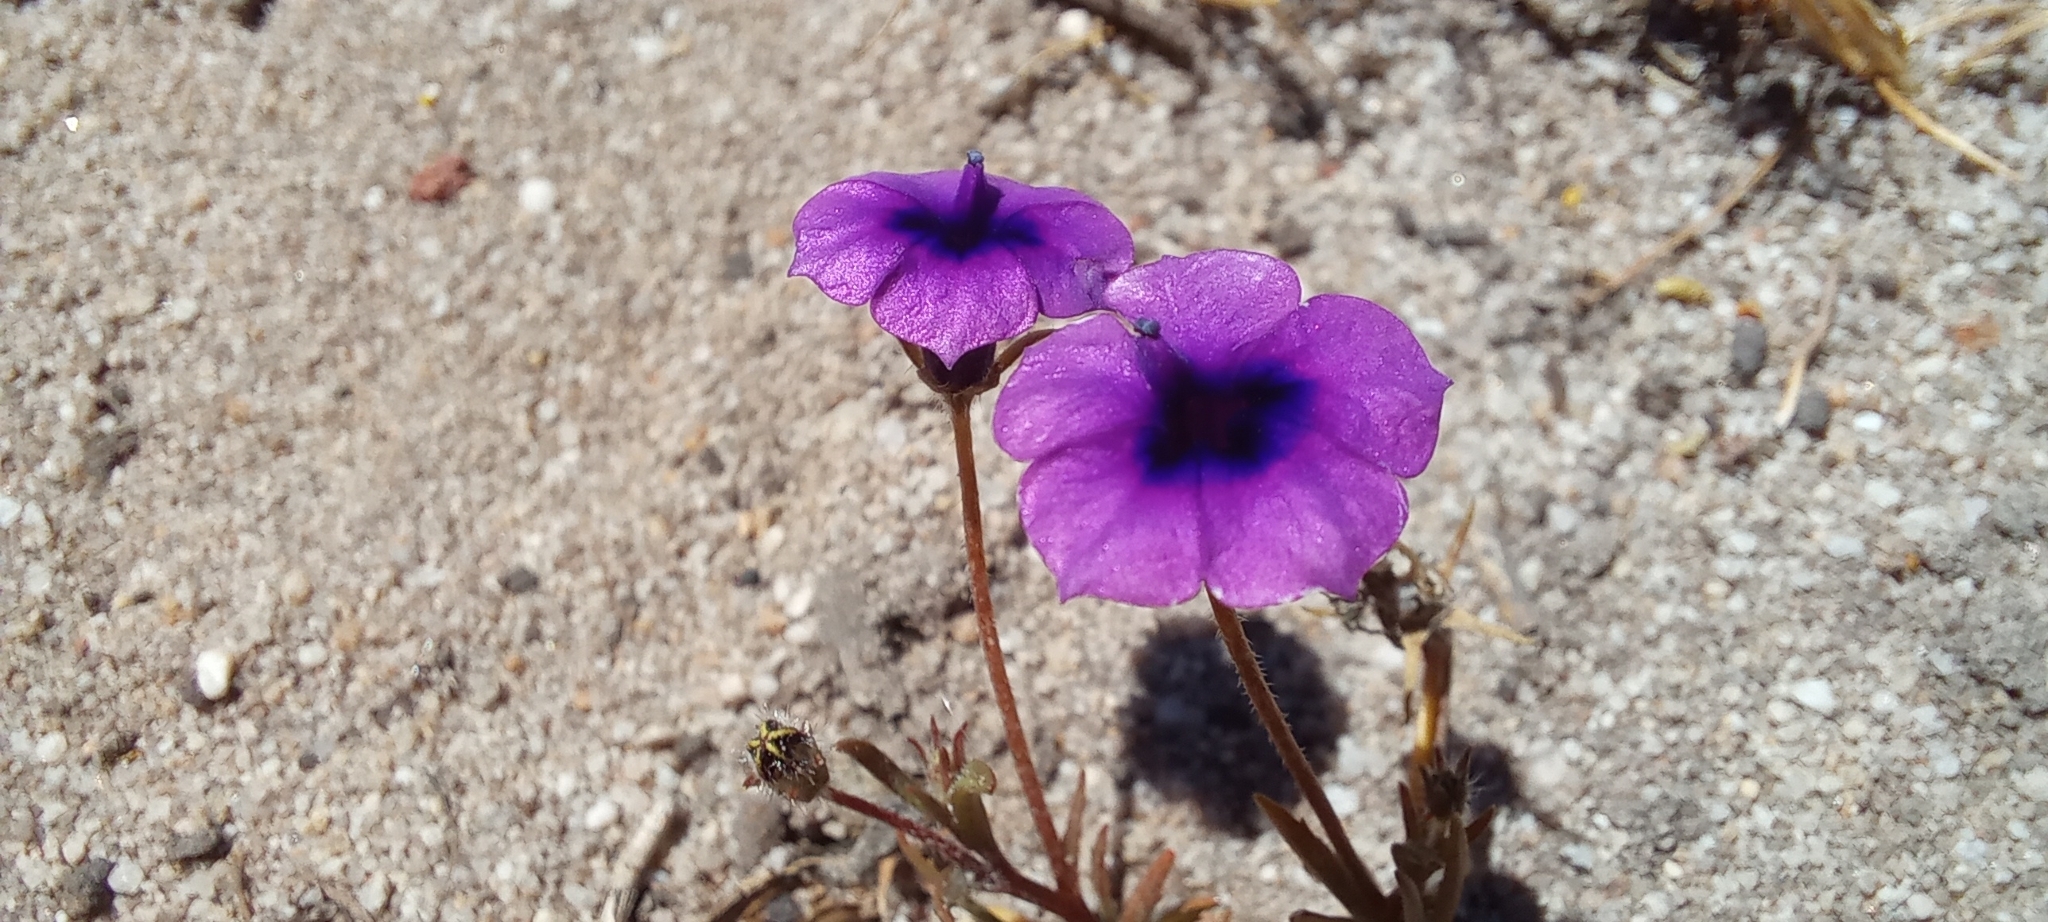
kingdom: Plantae
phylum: Tracheophyta
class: Magnoliopsida
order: Asterales
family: Campanulaceae
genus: Monopsis
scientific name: Monopsis debilis
